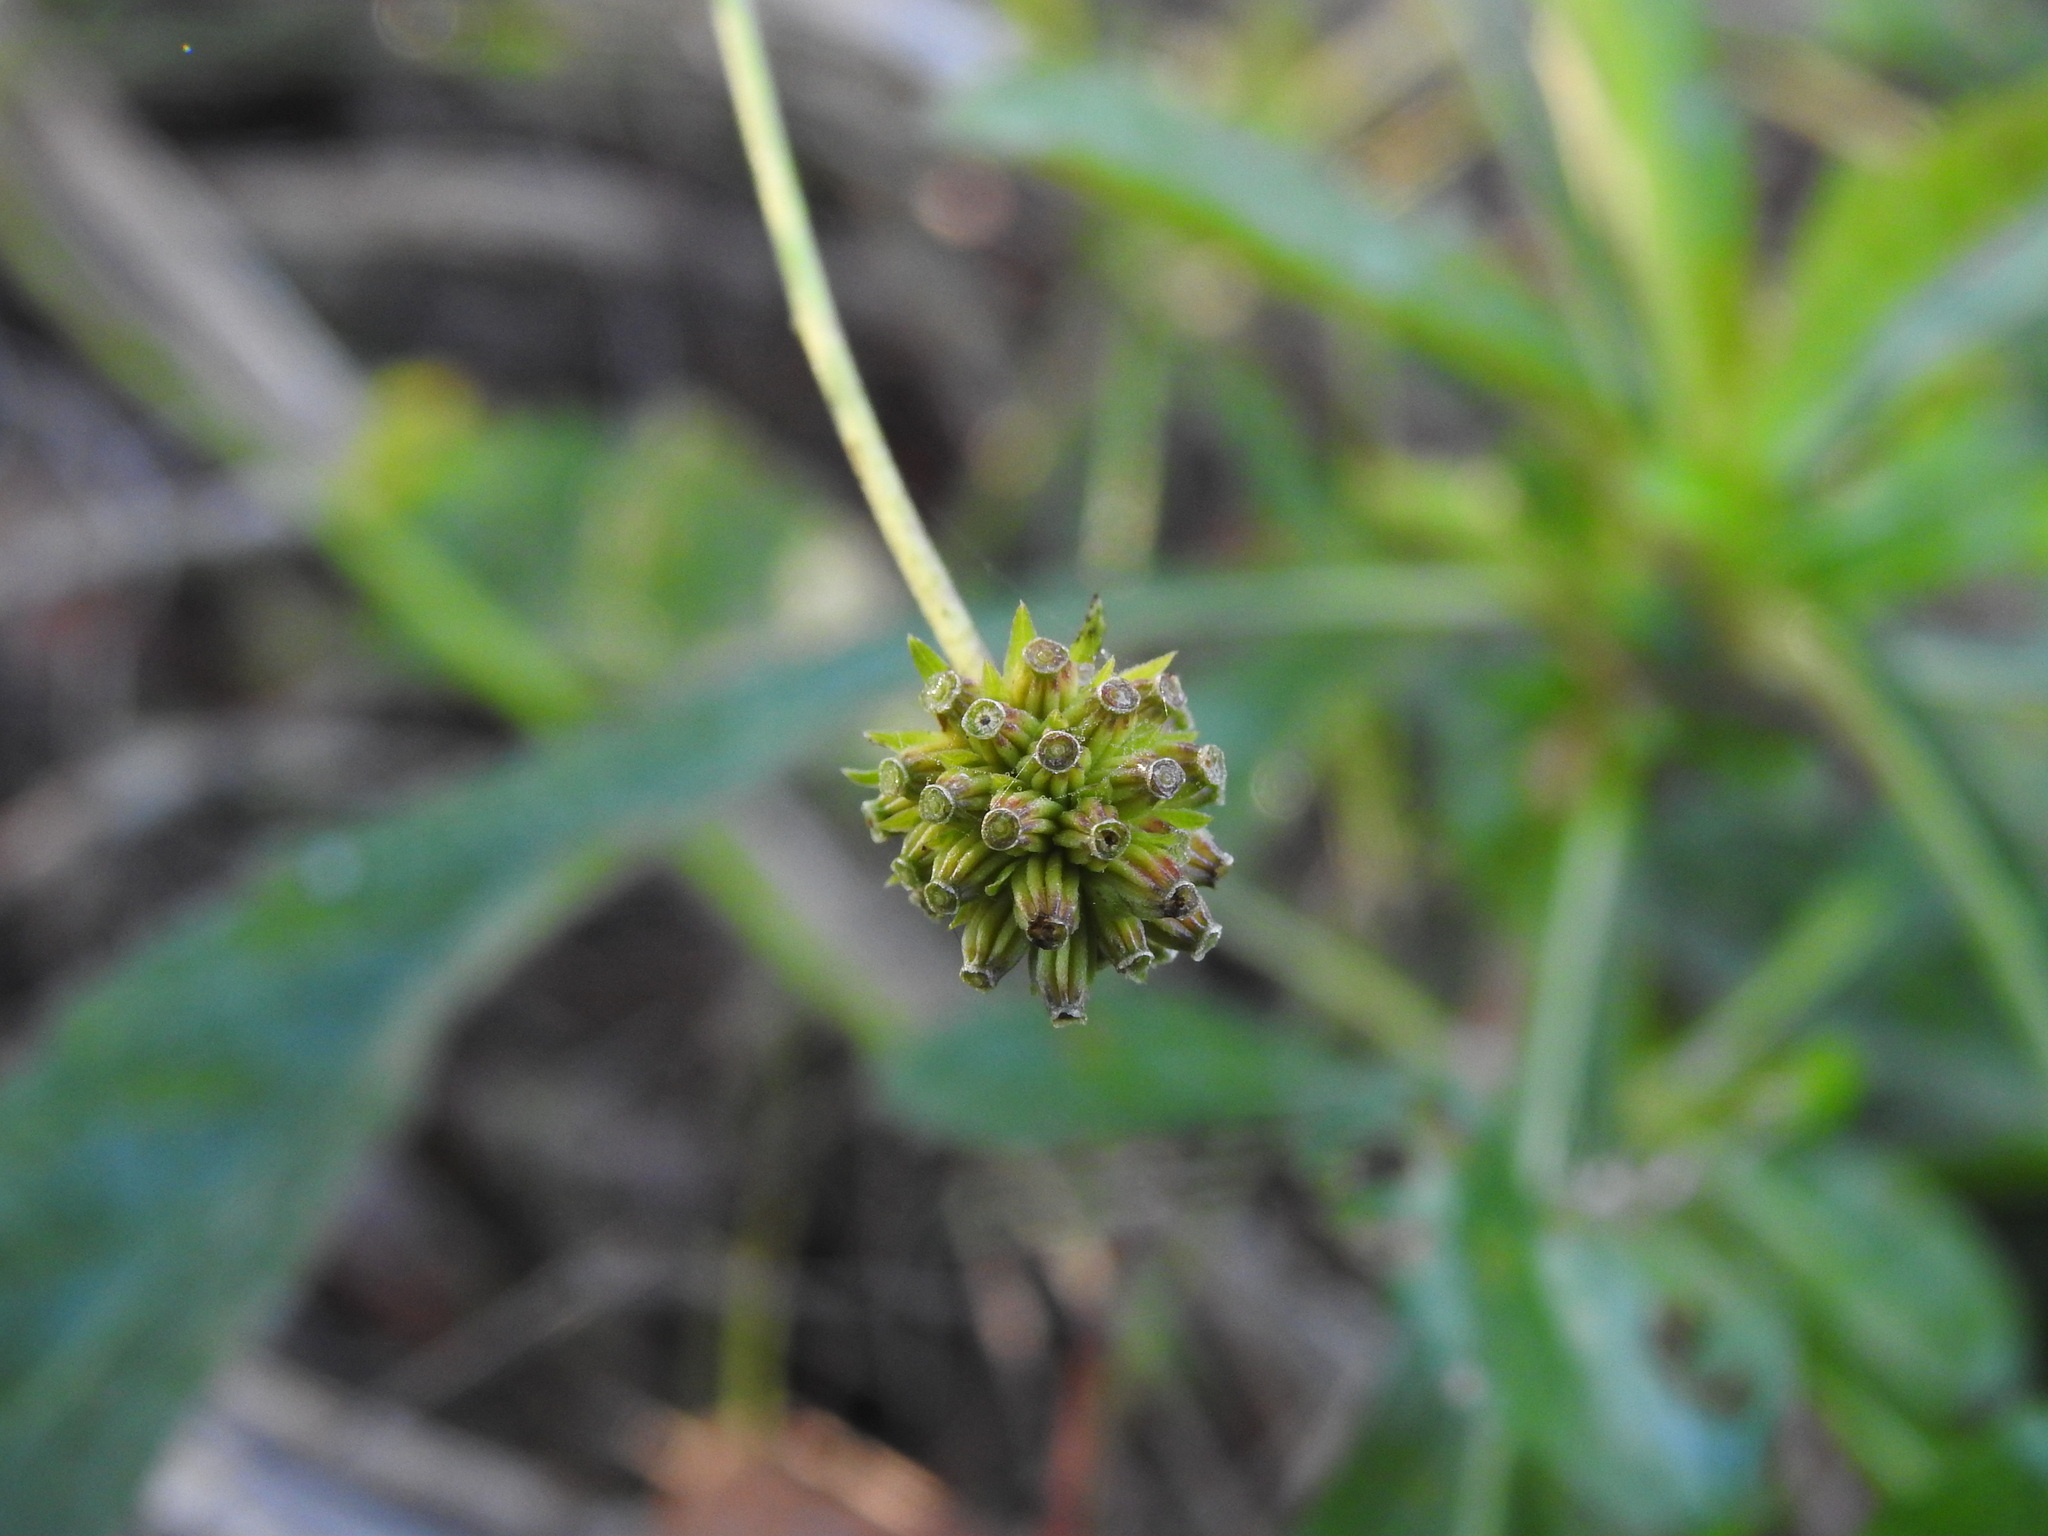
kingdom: Plantae
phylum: Tracheophyta
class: Magnoliopsida
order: Dipsacales
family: Caprifoliaceae
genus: Succisella
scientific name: Succisella carvalhoana
